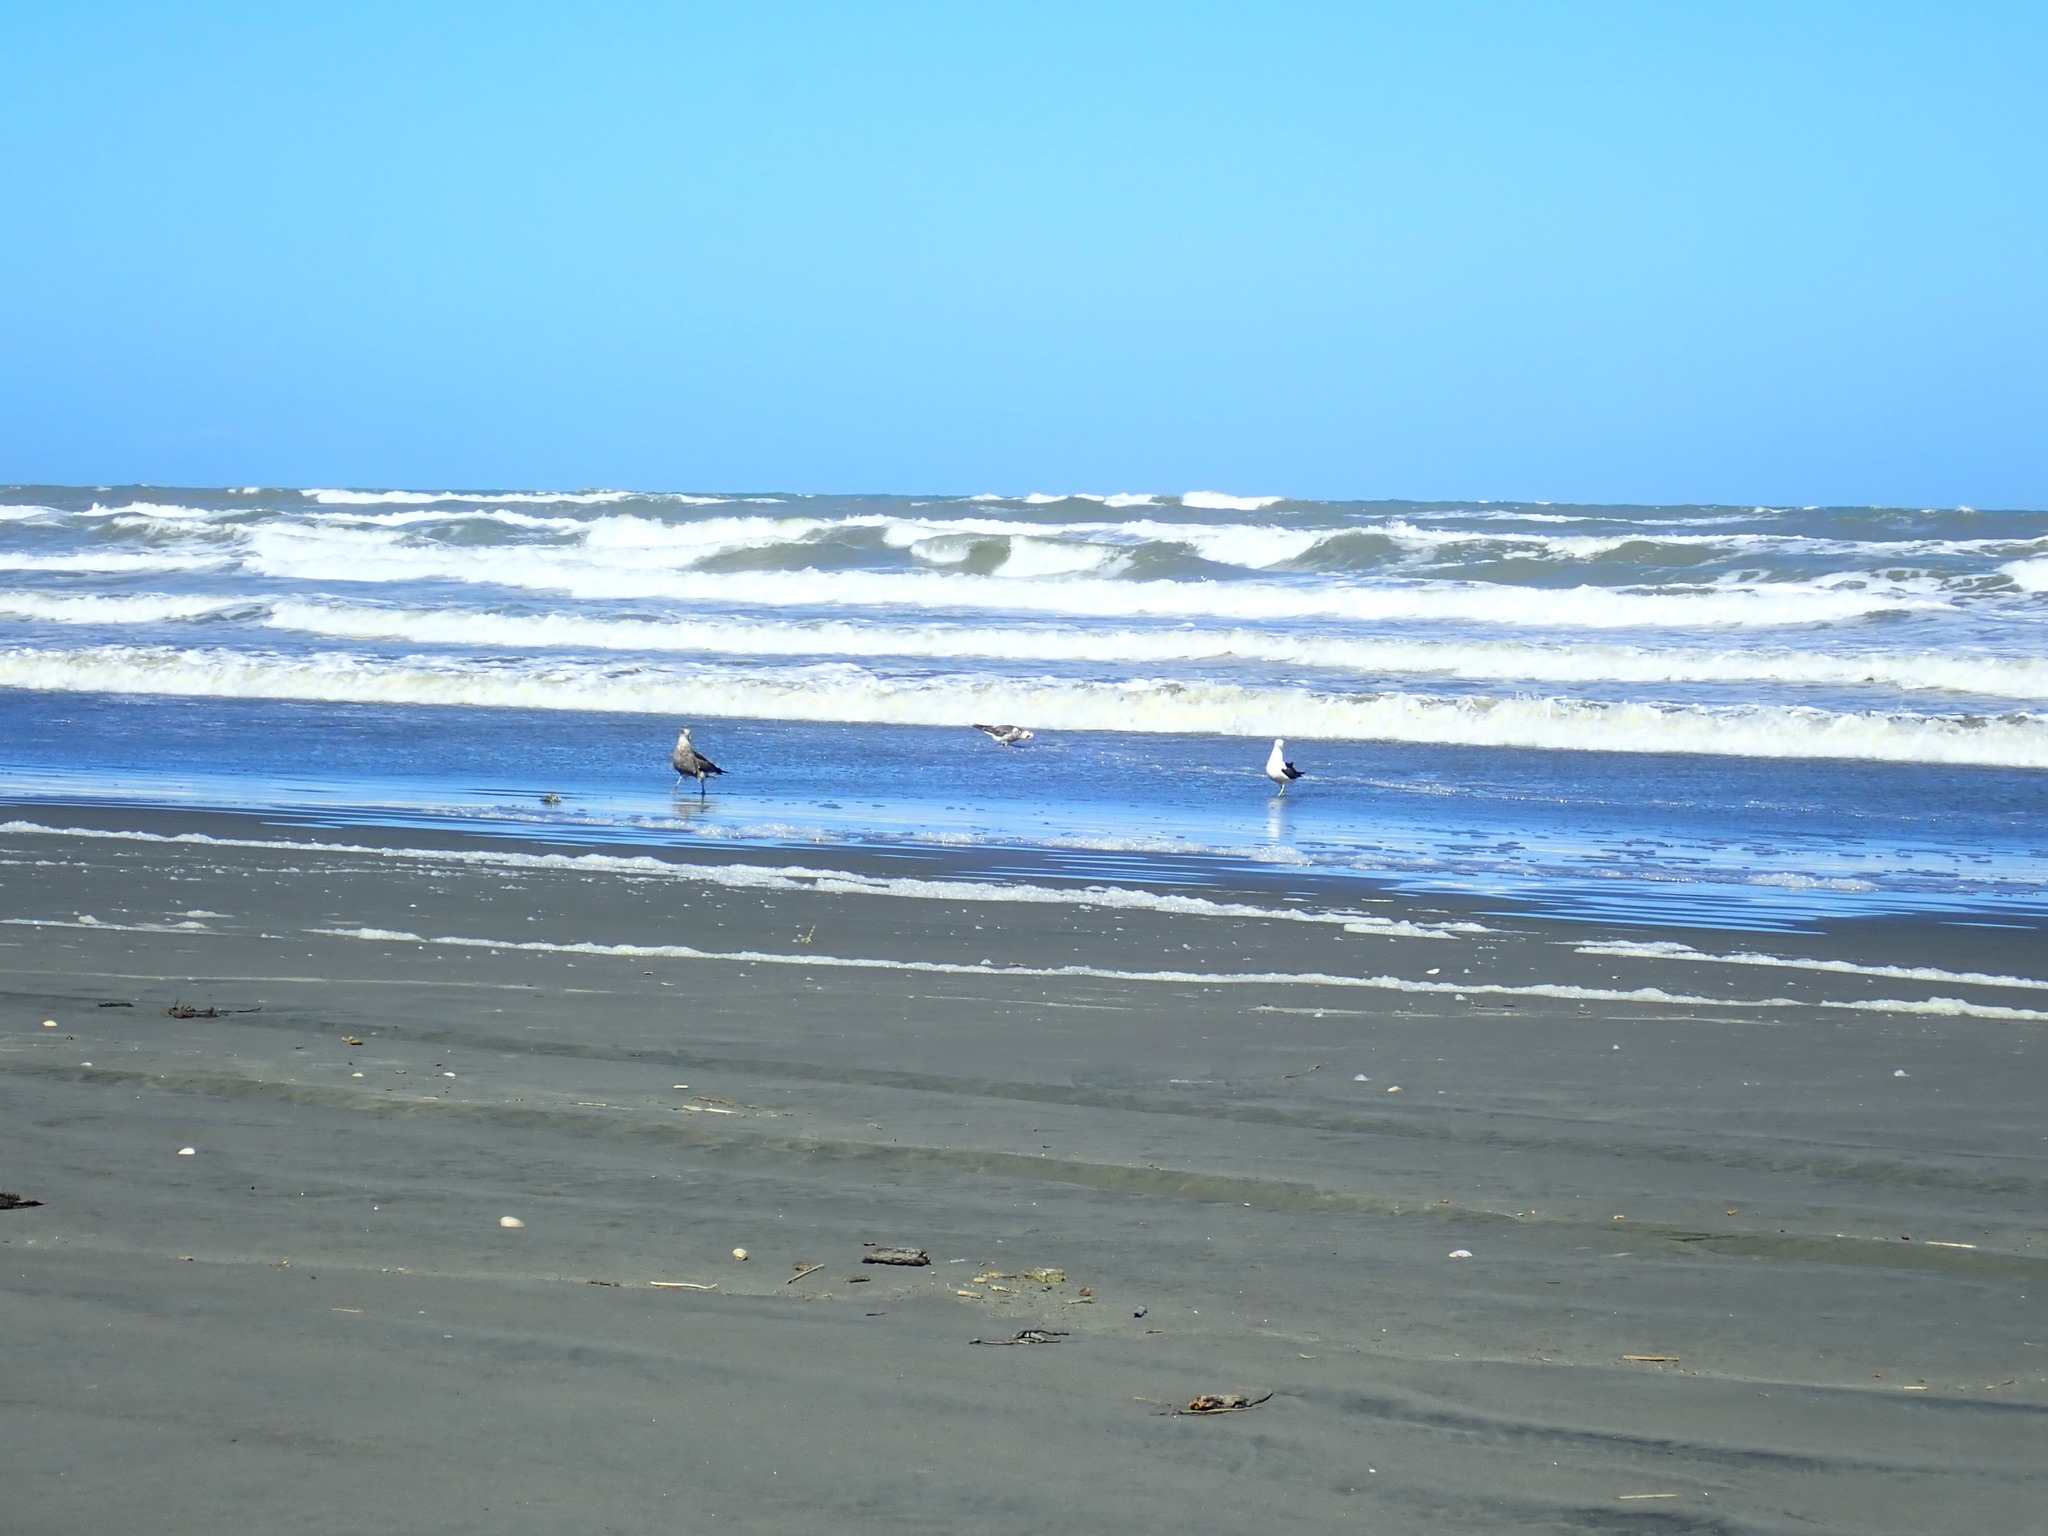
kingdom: Animalia
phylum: Chordata
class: Aves
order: Charadriiformes
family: Laridae
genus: Larus
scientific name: Larus dominicanus
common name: Kelp gull
